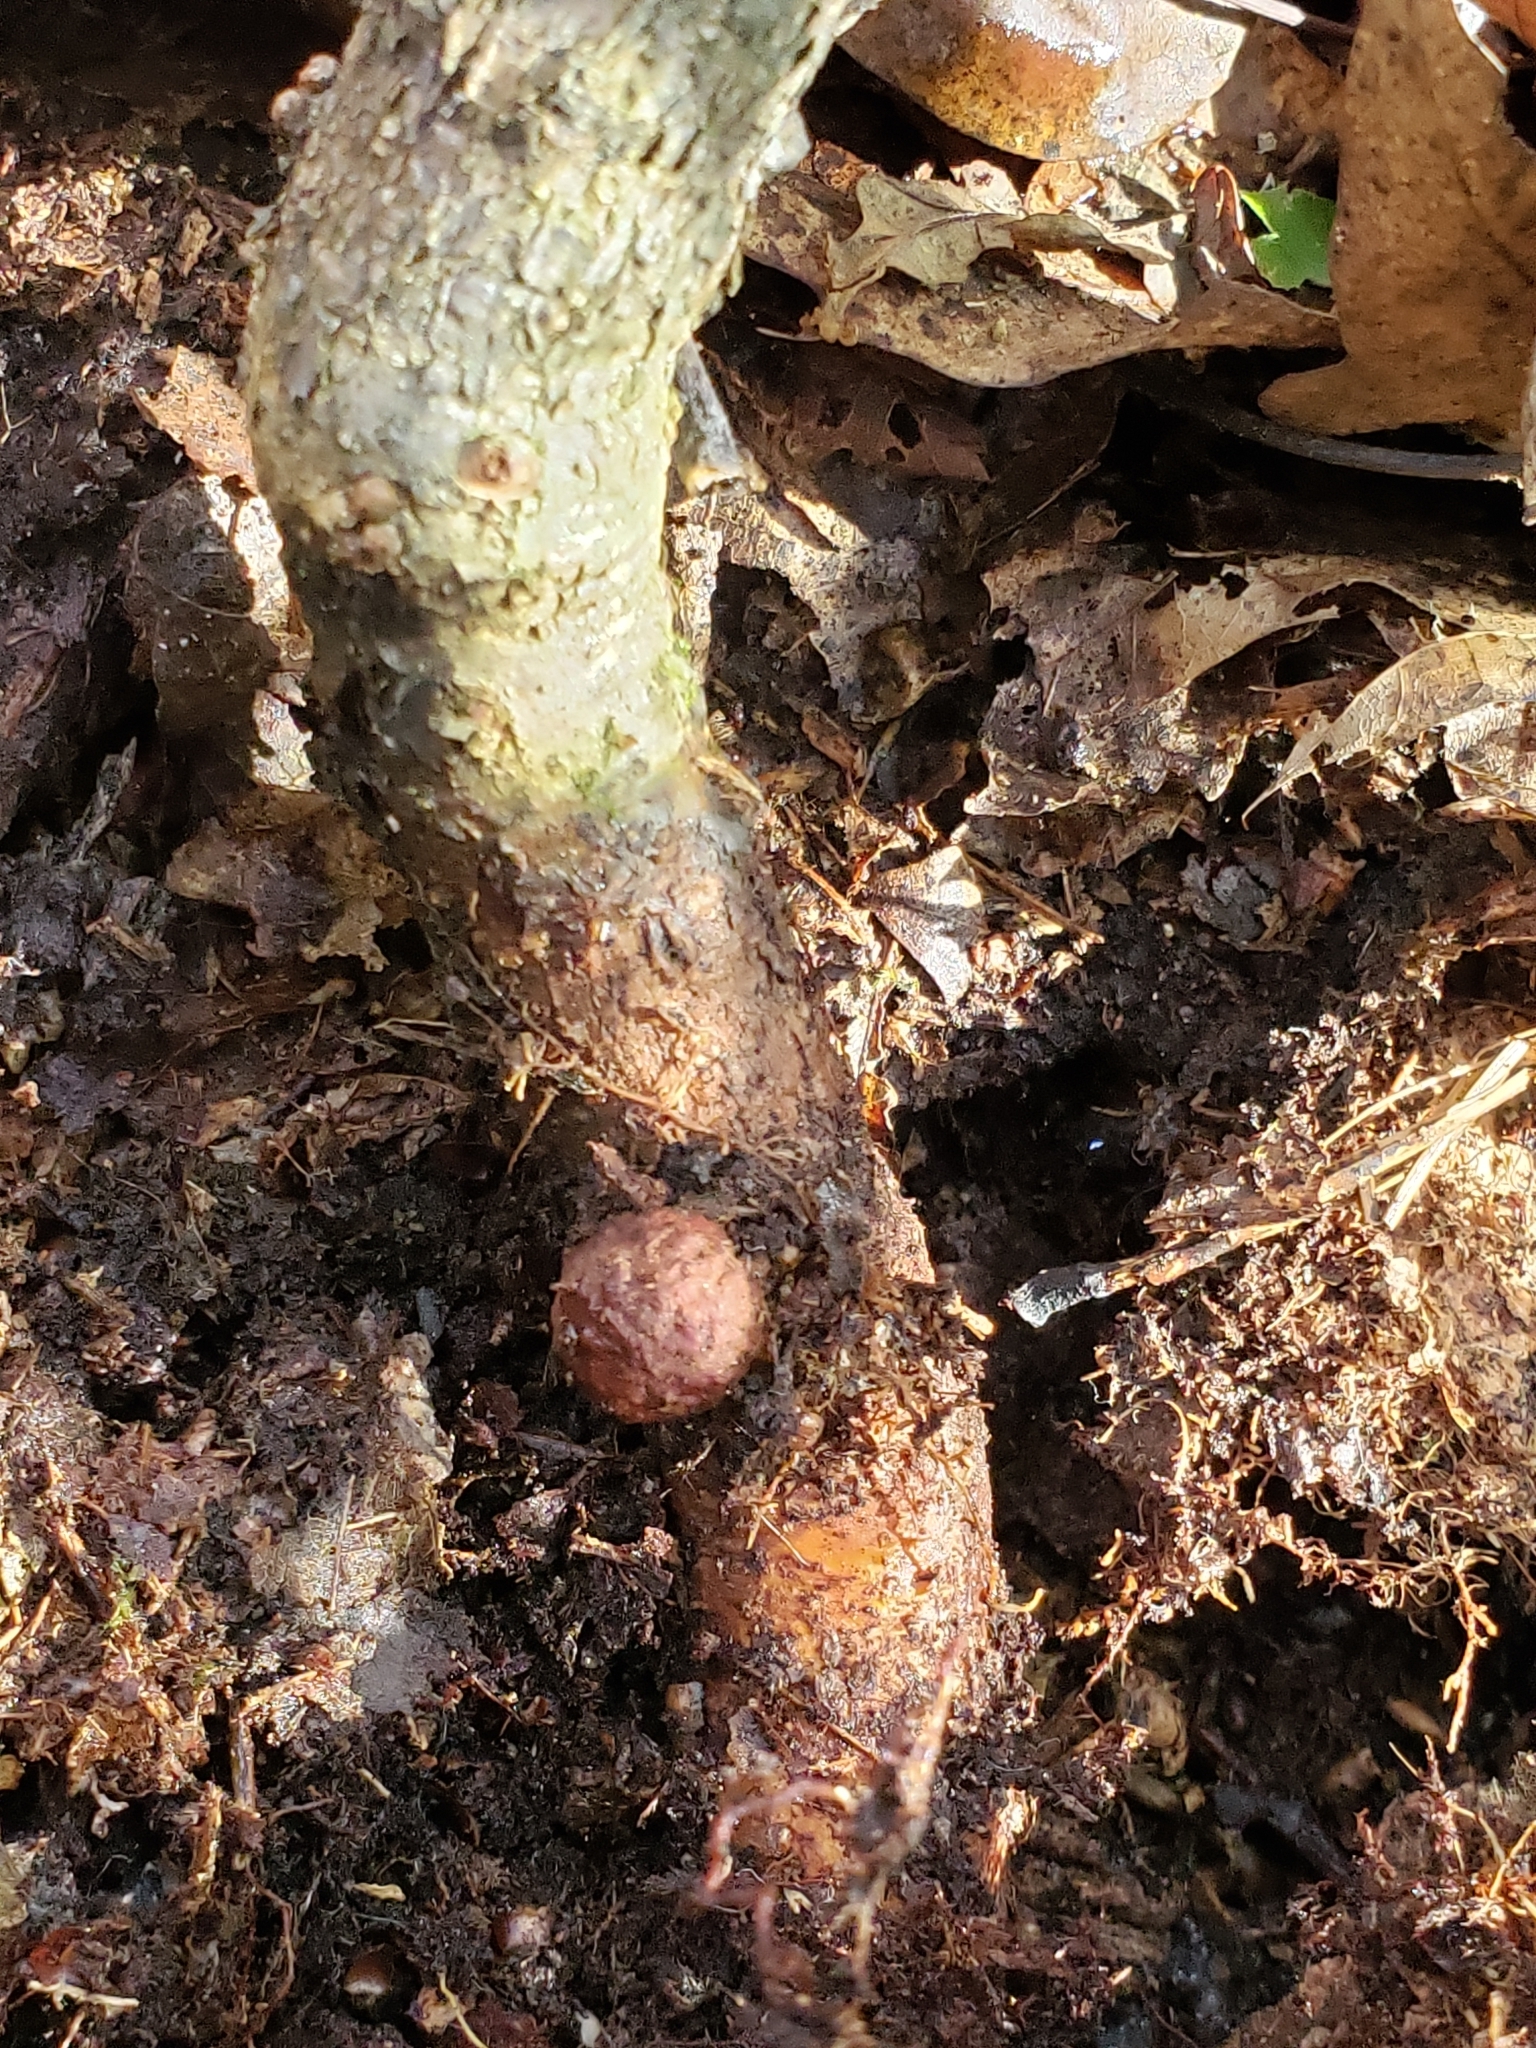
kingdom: Animalia
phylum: Arthropoda
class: Insecta
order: Hymenoptera
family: Cynipidae
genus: Holocynips
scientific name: Holocynips
